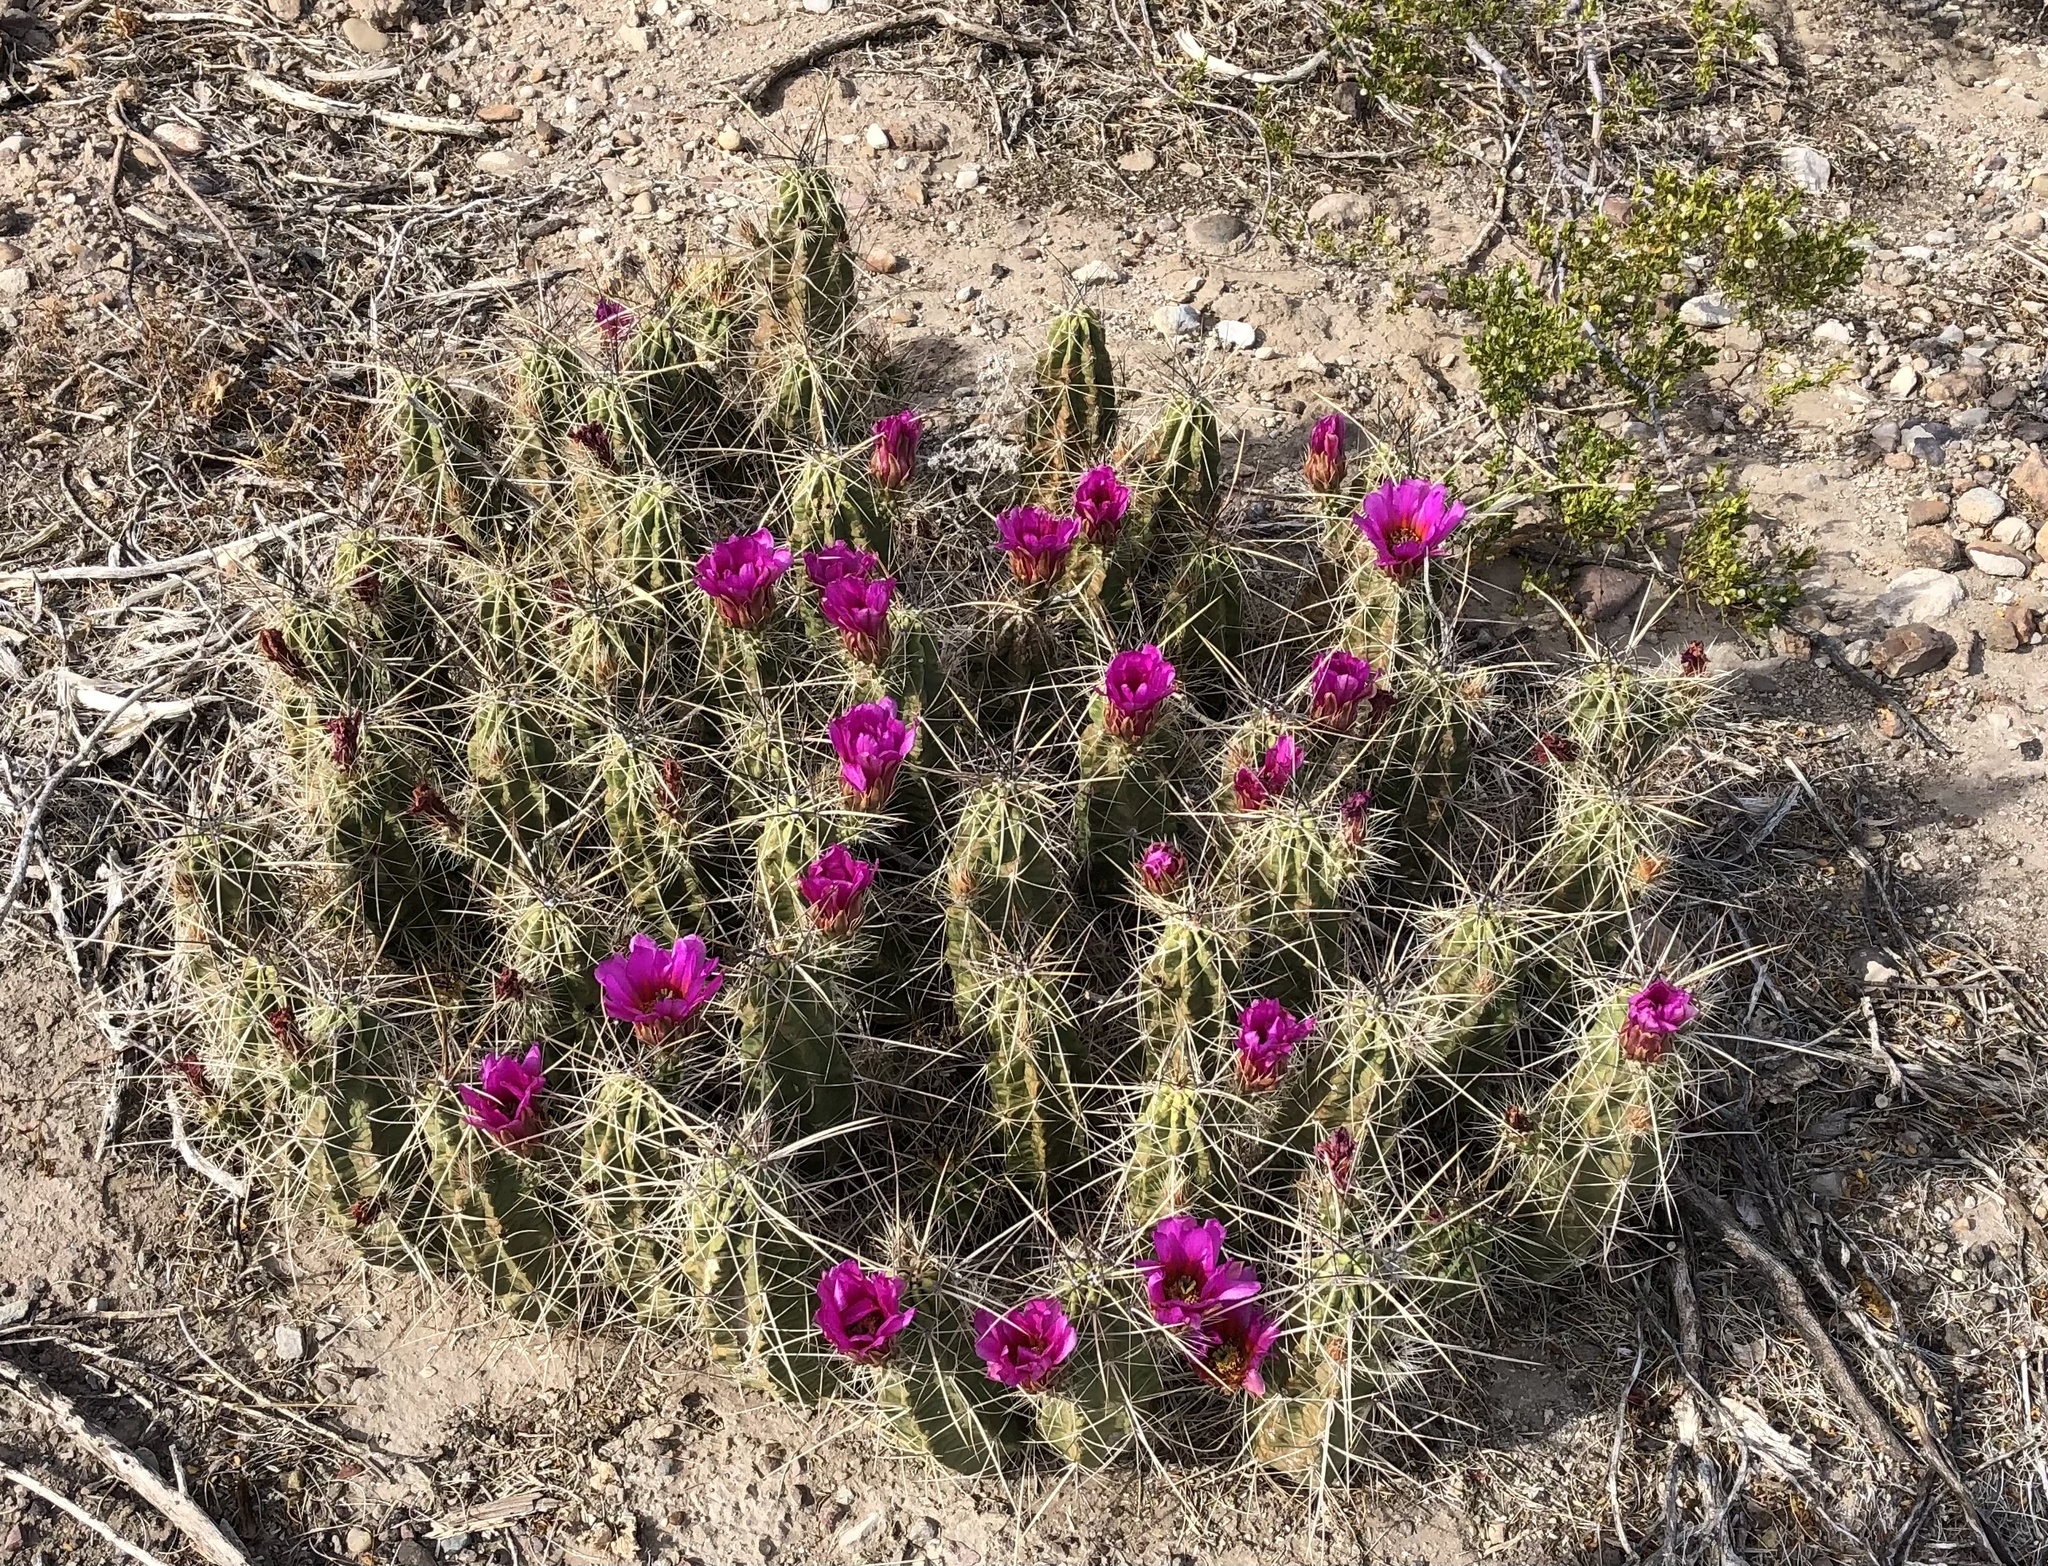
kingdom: Plantae
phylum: Tracheophyta
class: Magnoliopsida
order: Caryophyllales
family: Cactaceae
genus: Echinocereus
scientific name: Echinocereus enneacanthus
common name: Pitaya
